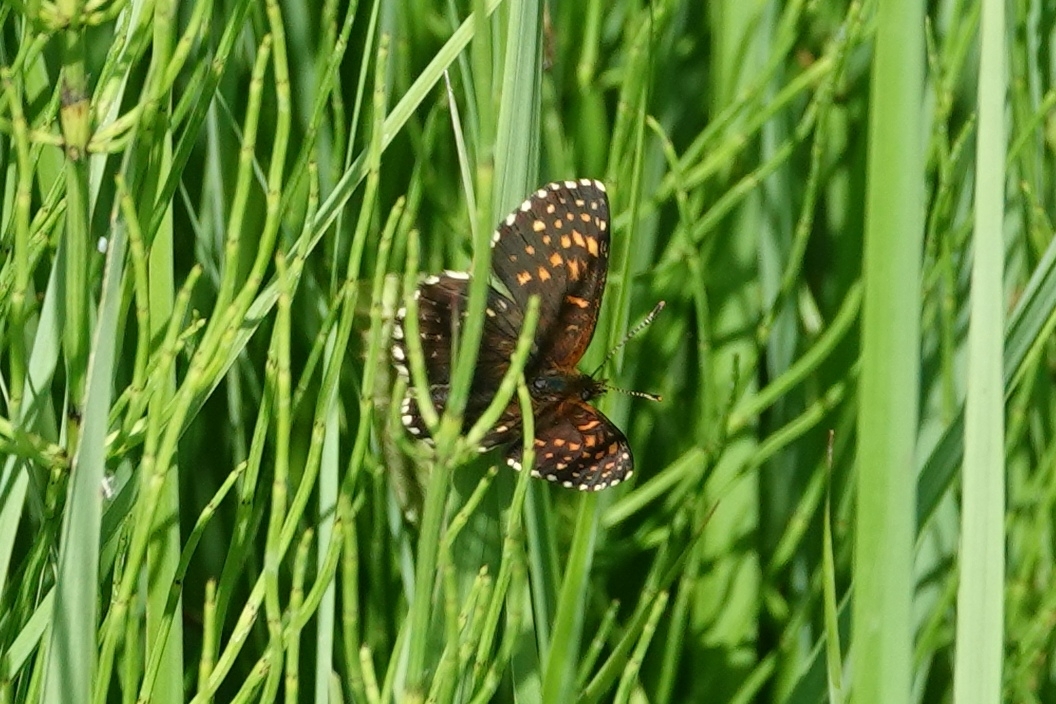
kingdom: Animalia
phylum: Arthropoda
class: Insecta
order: Lepidoptera
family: Nymphalidae
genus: Melitaea
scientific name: Melitaea diamina
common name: False heath fritillary
